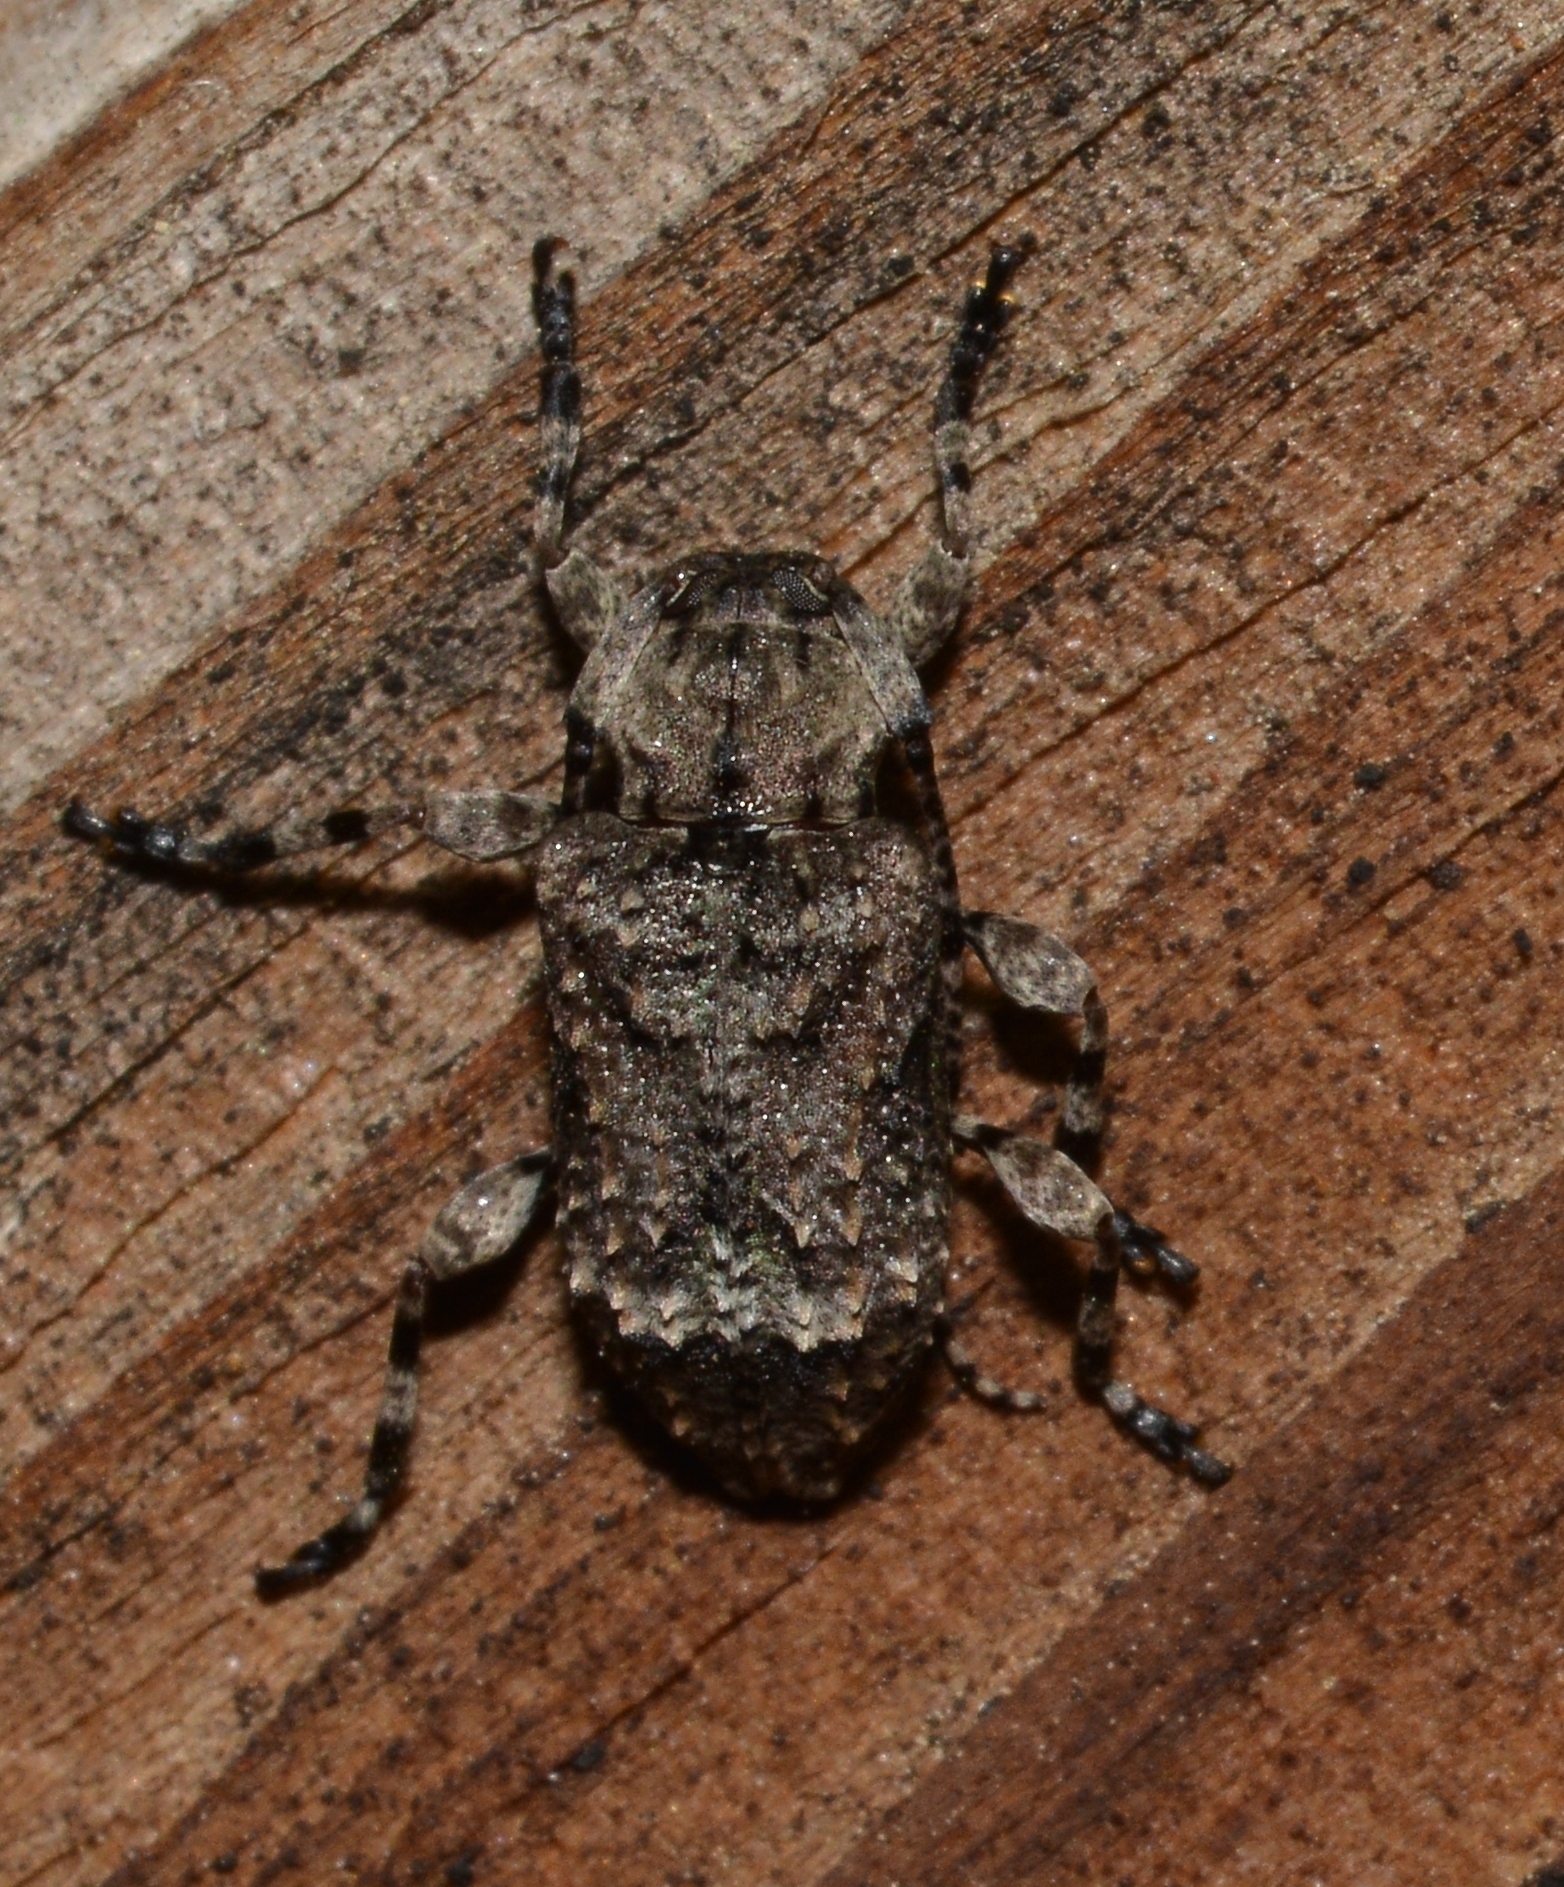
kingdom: Animalia
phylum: Arthropoda
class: Insecta
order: Coleoptera
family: Cerambycidae
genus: Leptostylus
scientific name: Leptostylus transversus
